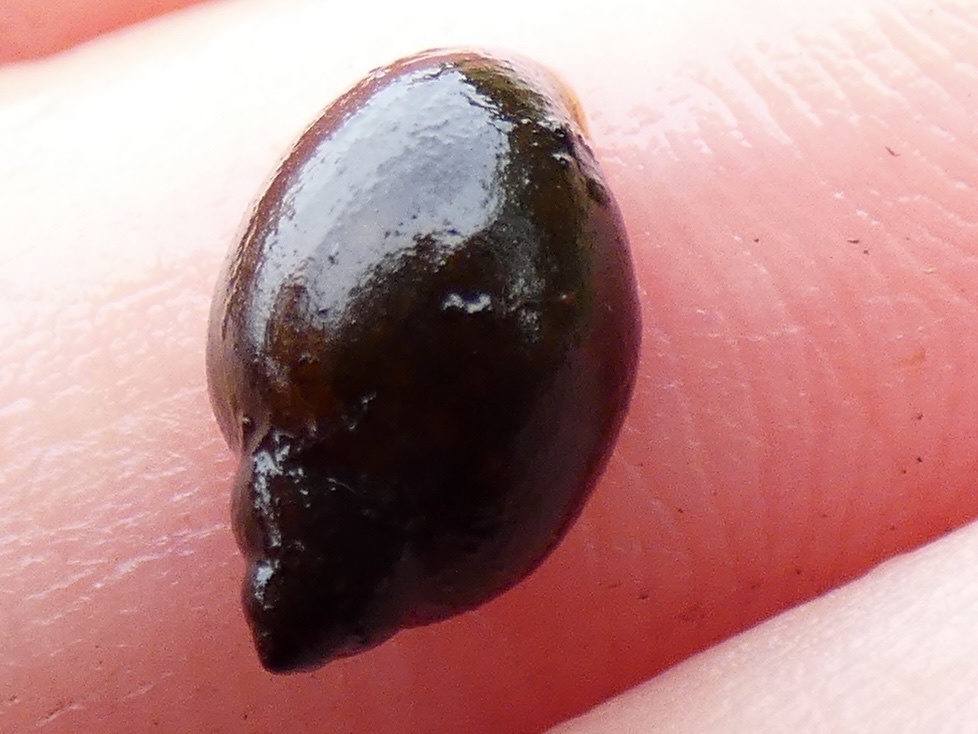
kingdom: Animalia
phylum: Mollusca
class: Gastropoda
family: Physidae
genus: Physella
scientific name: Physella acuta
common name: European physa
